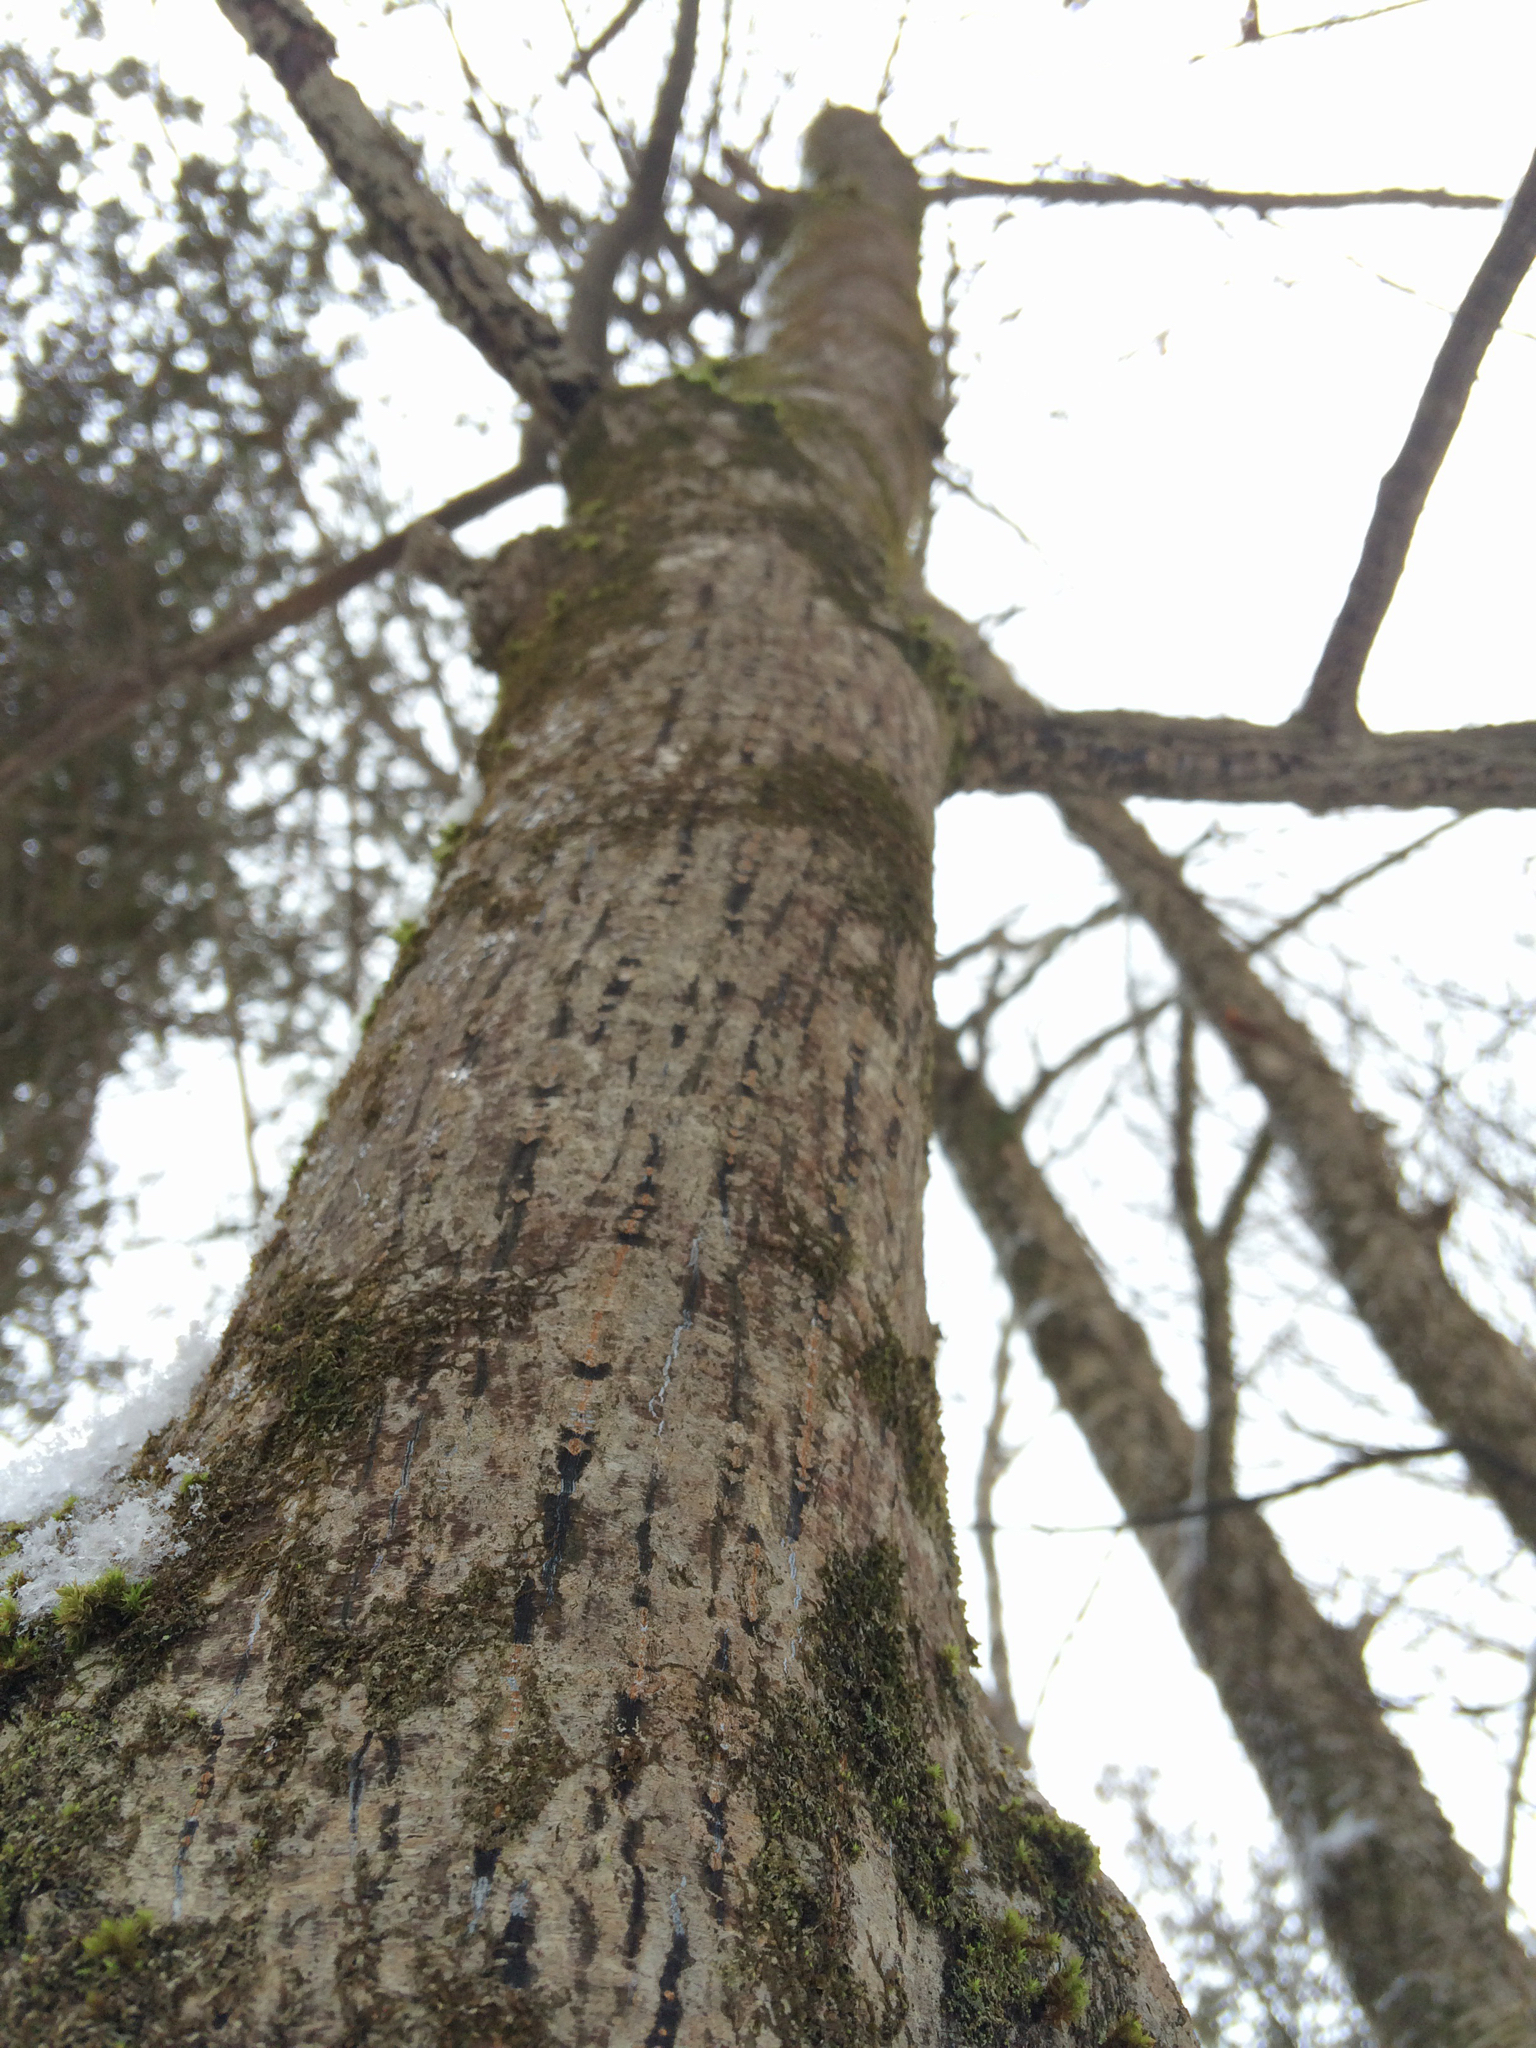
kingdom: Plantae
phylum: Tracheophyta
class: Magnoliopsida
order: Sapindales
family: Sapindaceae
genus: Acer
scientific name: Acer pensylvanicum
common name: Moosewood
